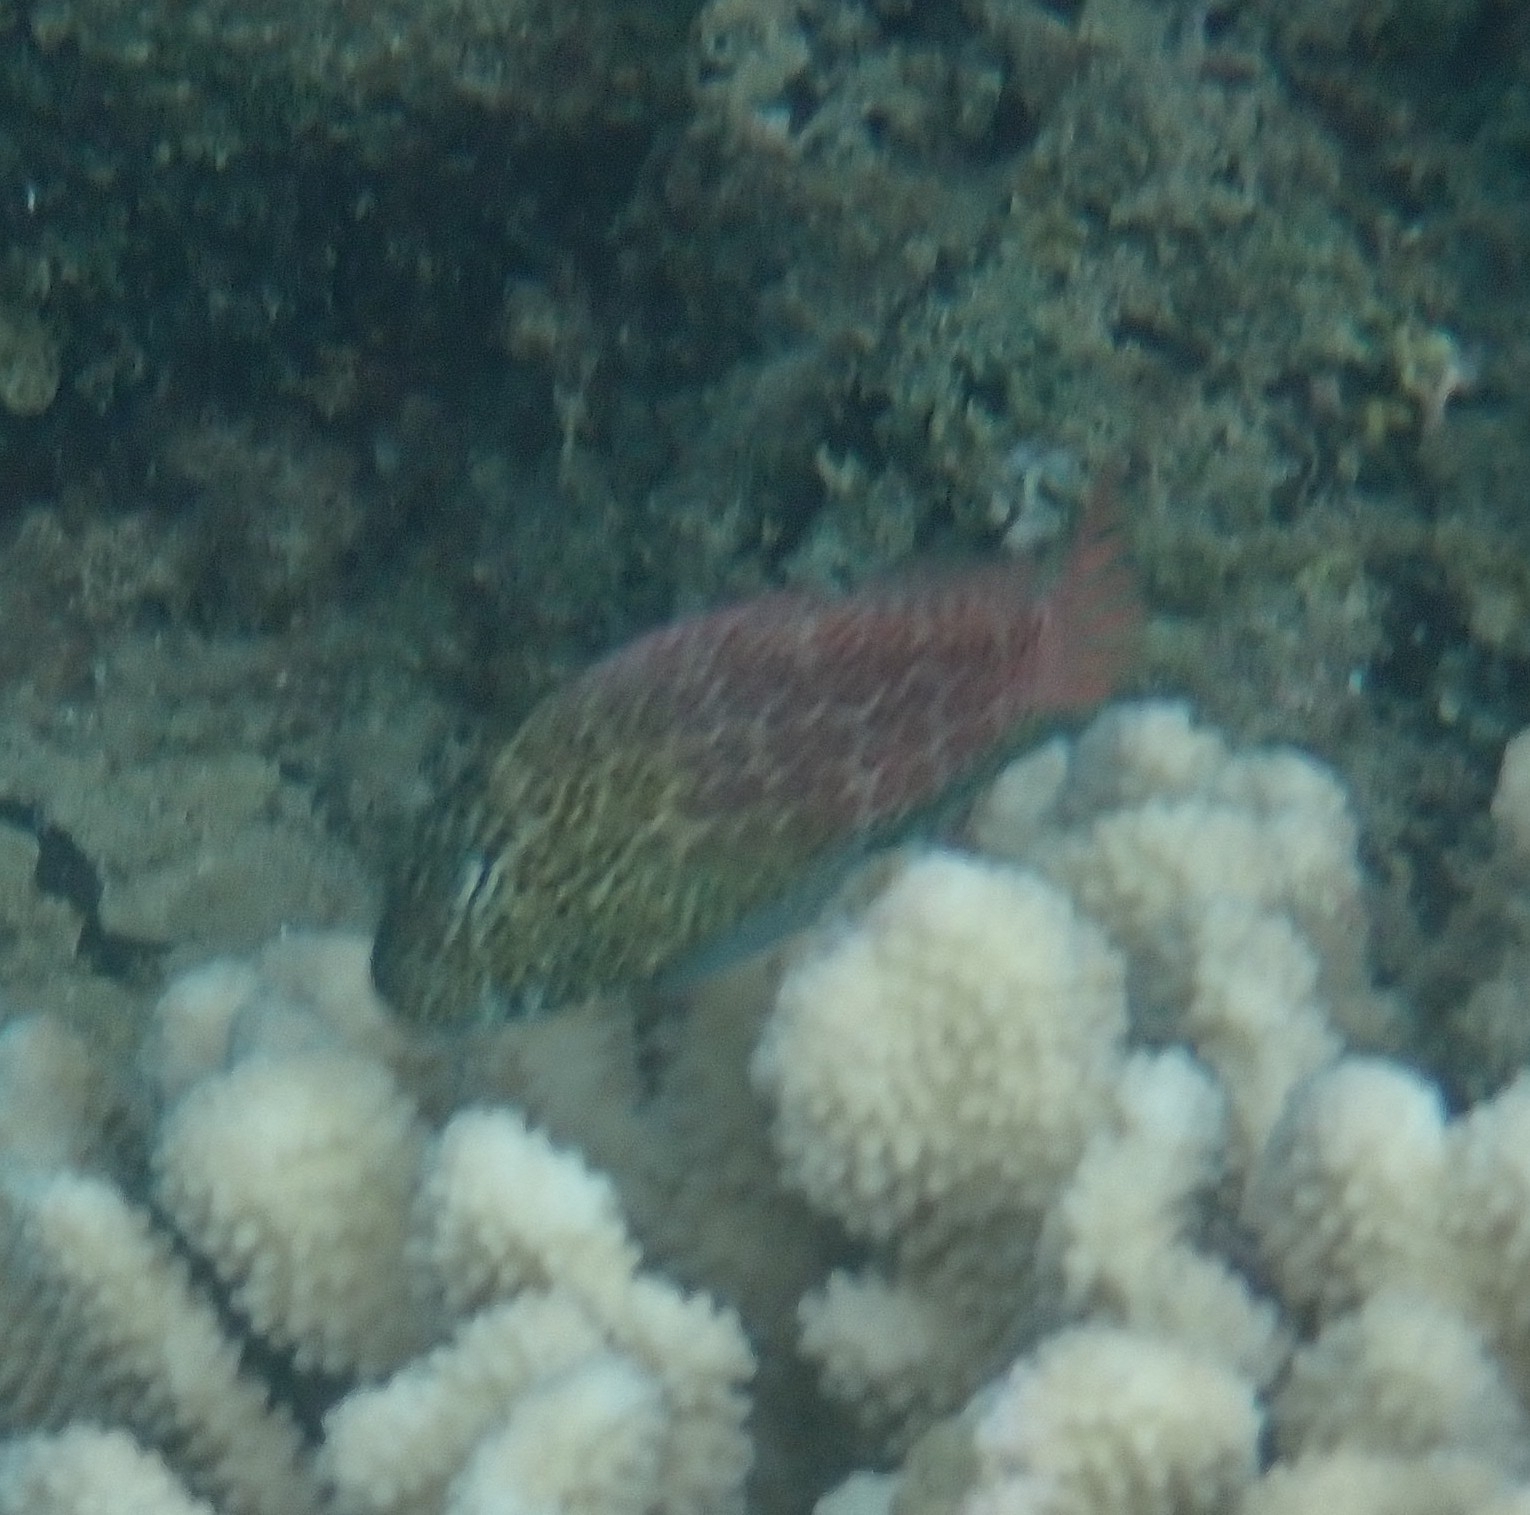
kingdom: Animalia
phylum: Chordata
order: Perciformes
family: Blenniidae
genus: Exallias
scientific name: Exallias brevis
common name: Leopard blenny
